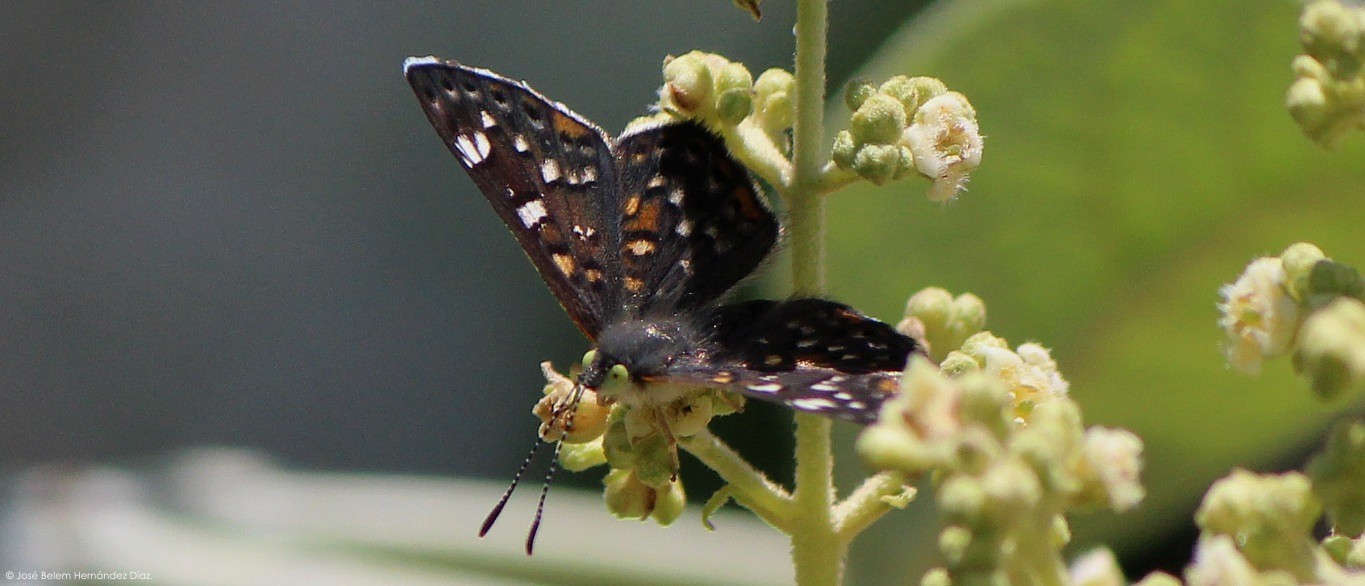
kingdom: Animalia
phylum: Arthropoda
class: Insecta
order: Lepidoptera
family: Riodinidae
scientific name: Riodinidae
